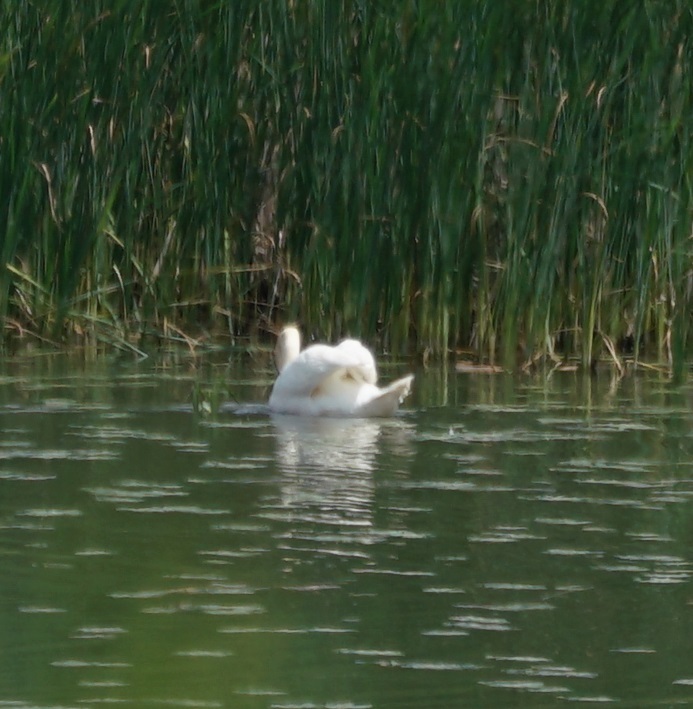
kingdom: Animalia
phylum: Chordata
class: Aves
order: Anseriformes
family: Anatidae
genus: Cygnus
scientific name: Cygnus olor
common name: Mute swan
